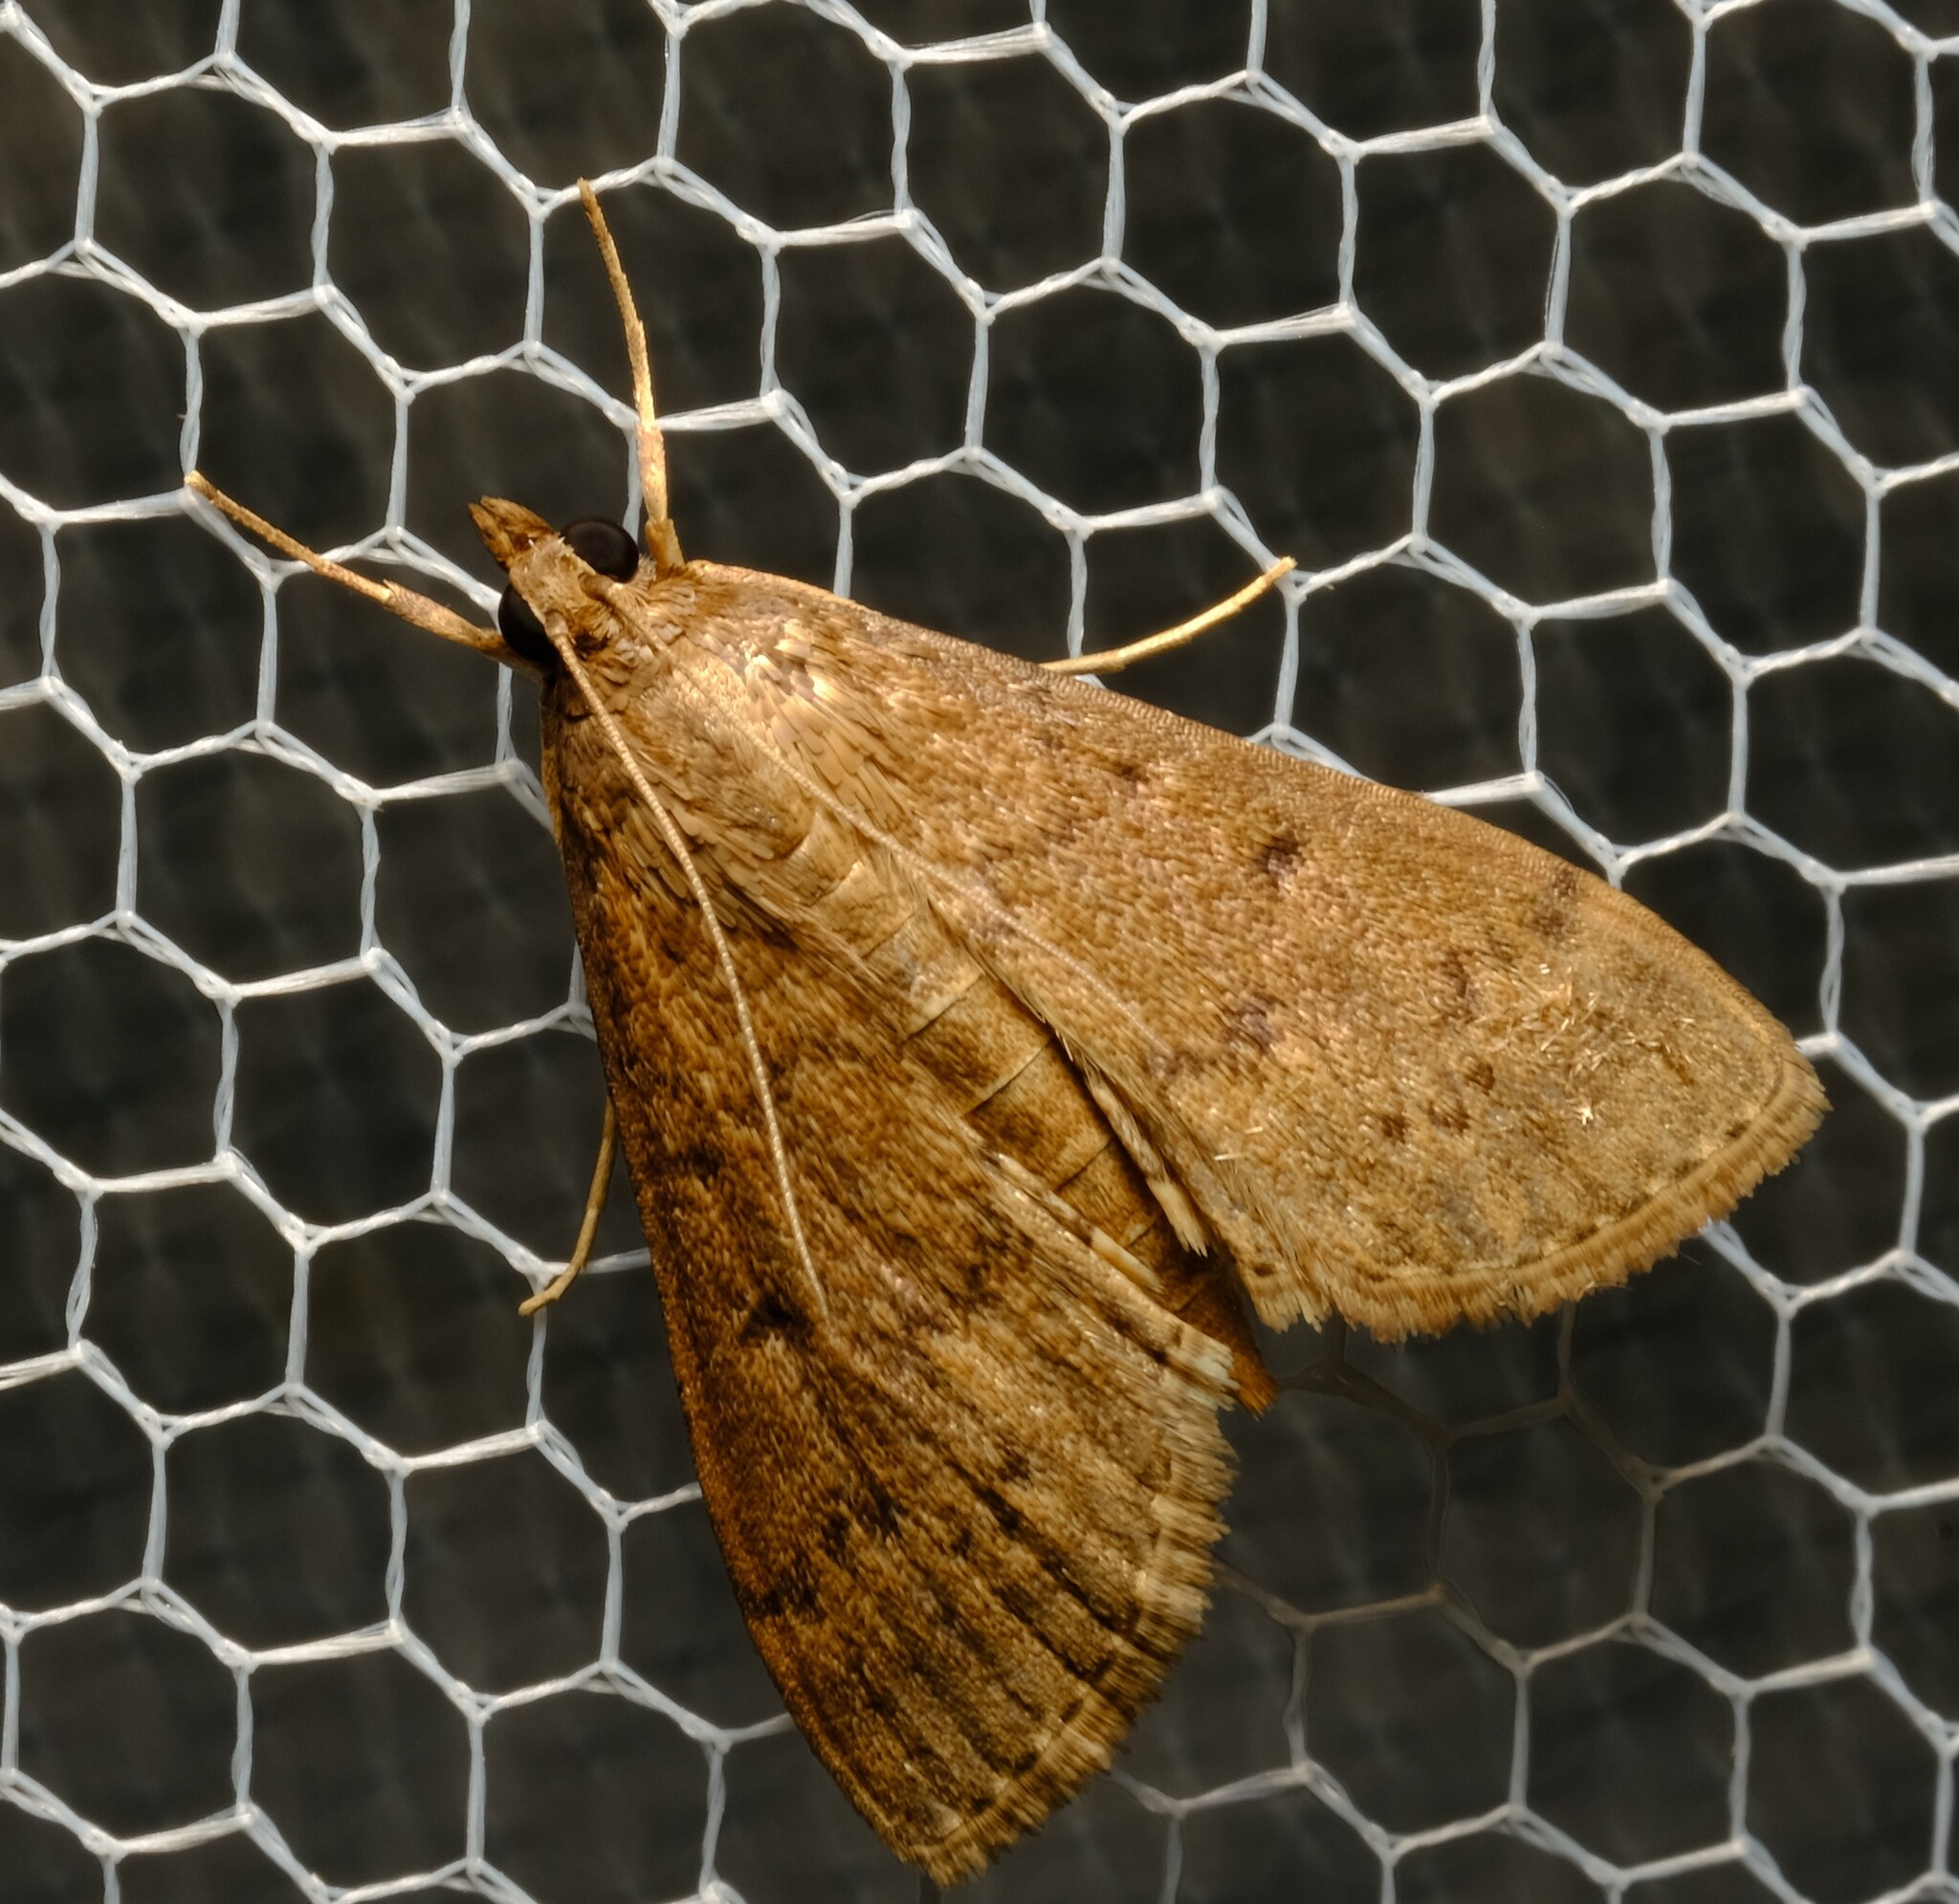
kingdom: Animalia
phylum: Arthropoda
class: Insecta
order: Lepidoptera
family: Crambidae
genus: Herpetogramma
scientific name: Herpetogramma licarsisalis
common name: Grass webworm
